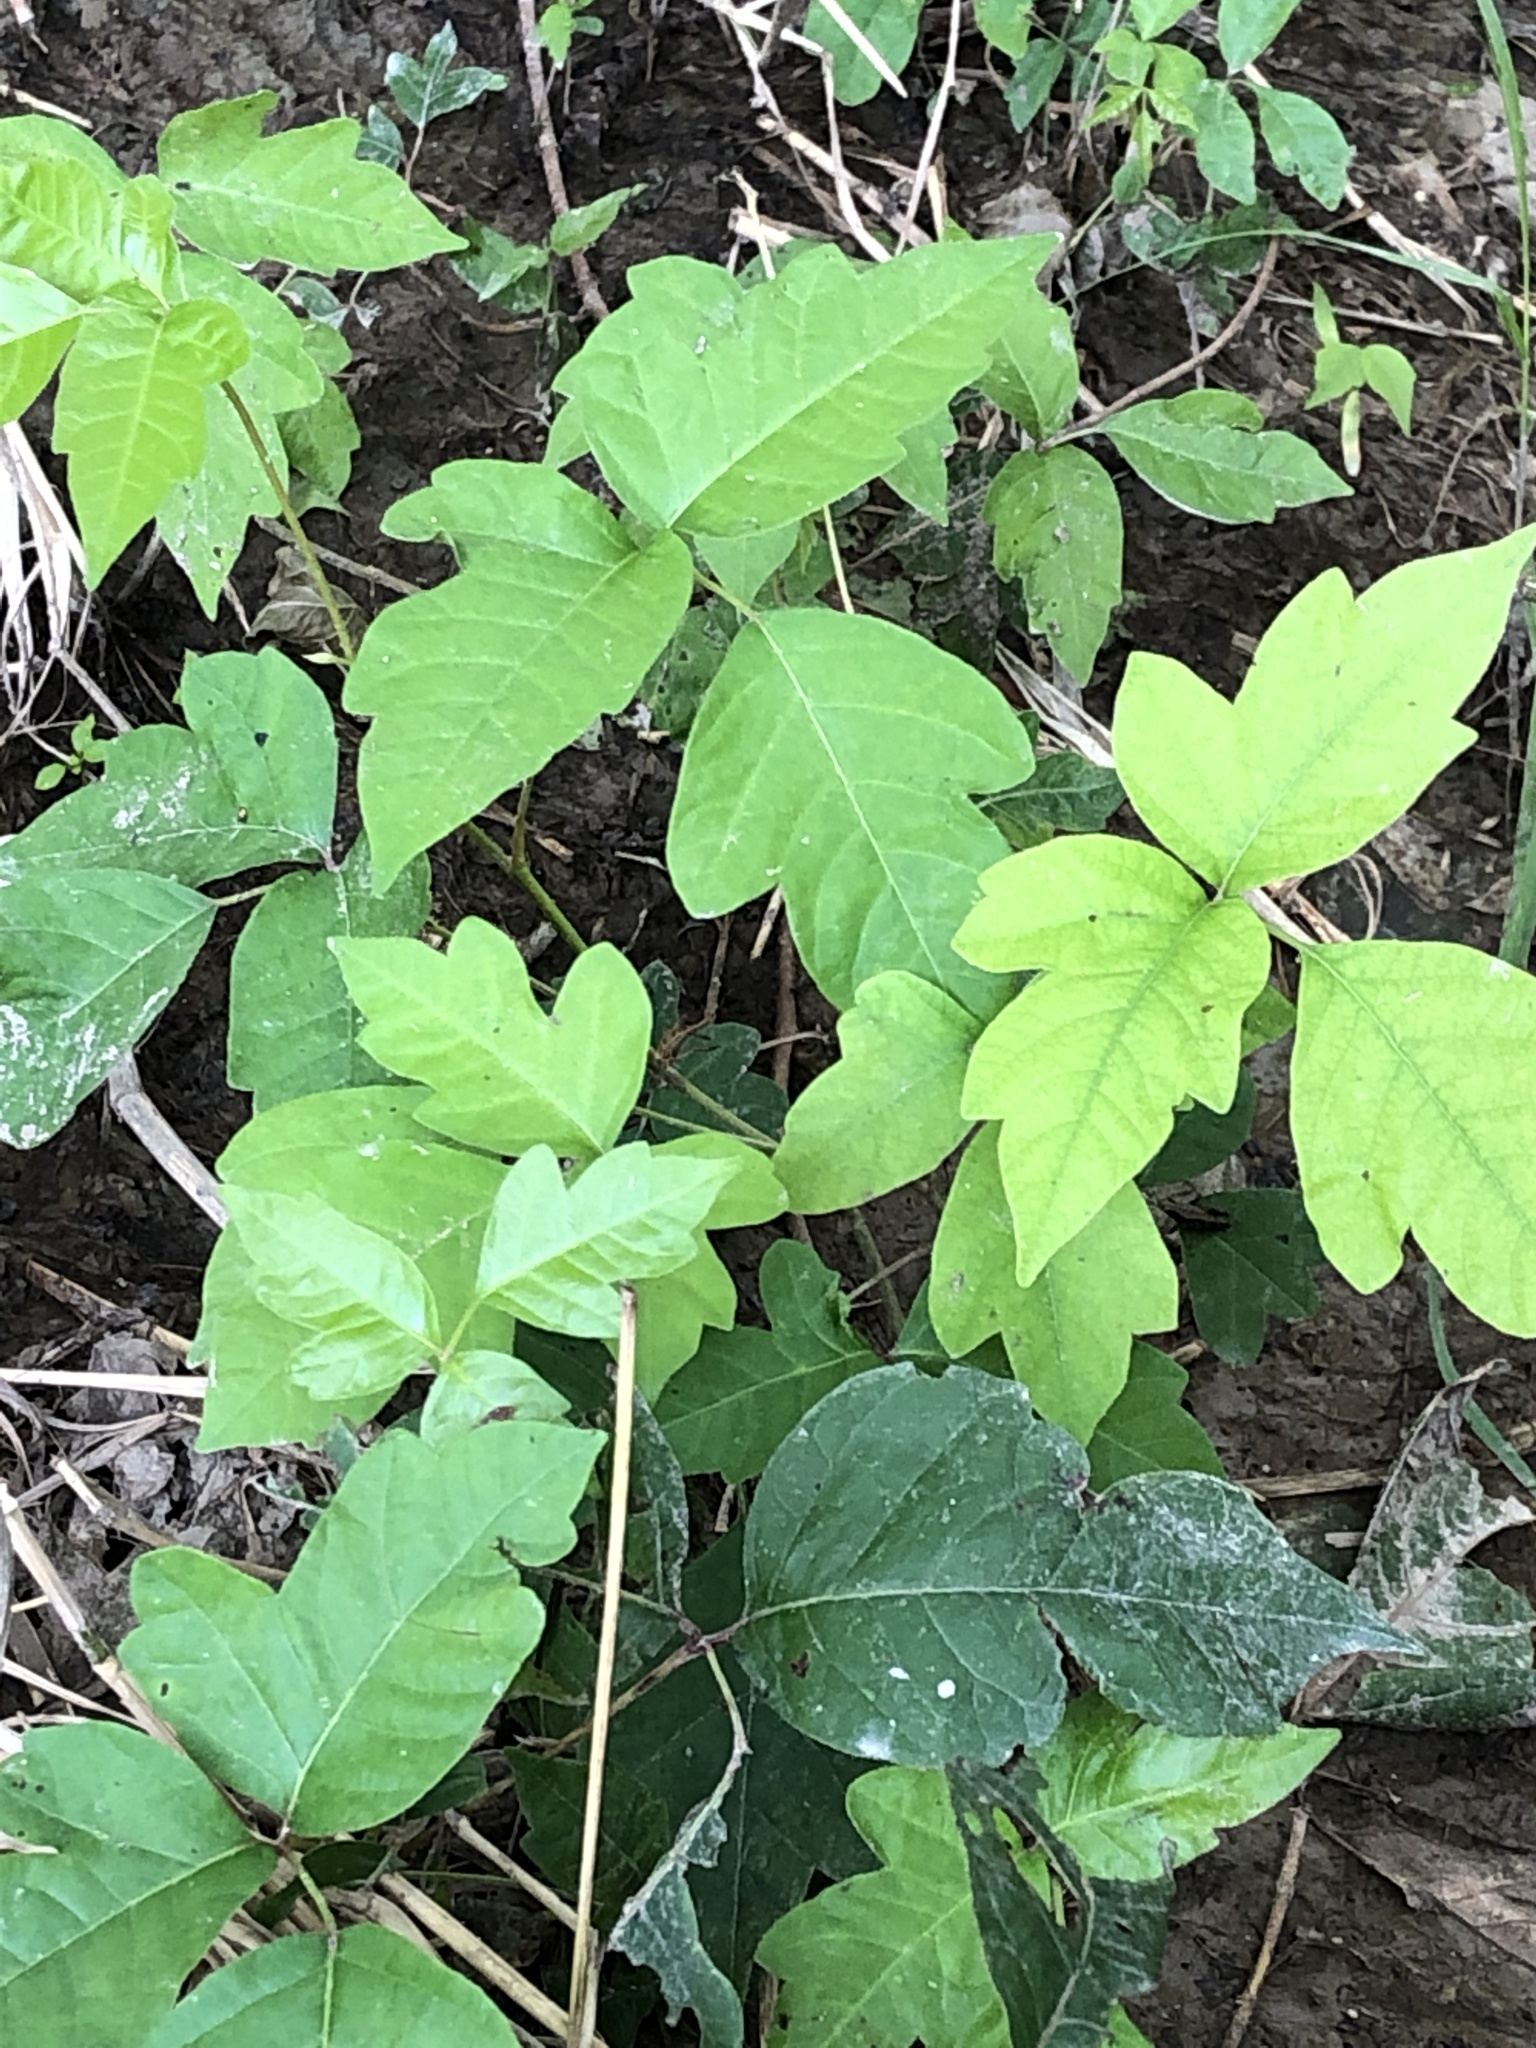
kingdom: Plantae
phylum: Tracheophyta
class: Magnoliopsida
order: Sapindales
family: Anacardiaceae
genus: Toxicodendron
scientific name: Toxicodendron radicans
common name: Poison ivy
